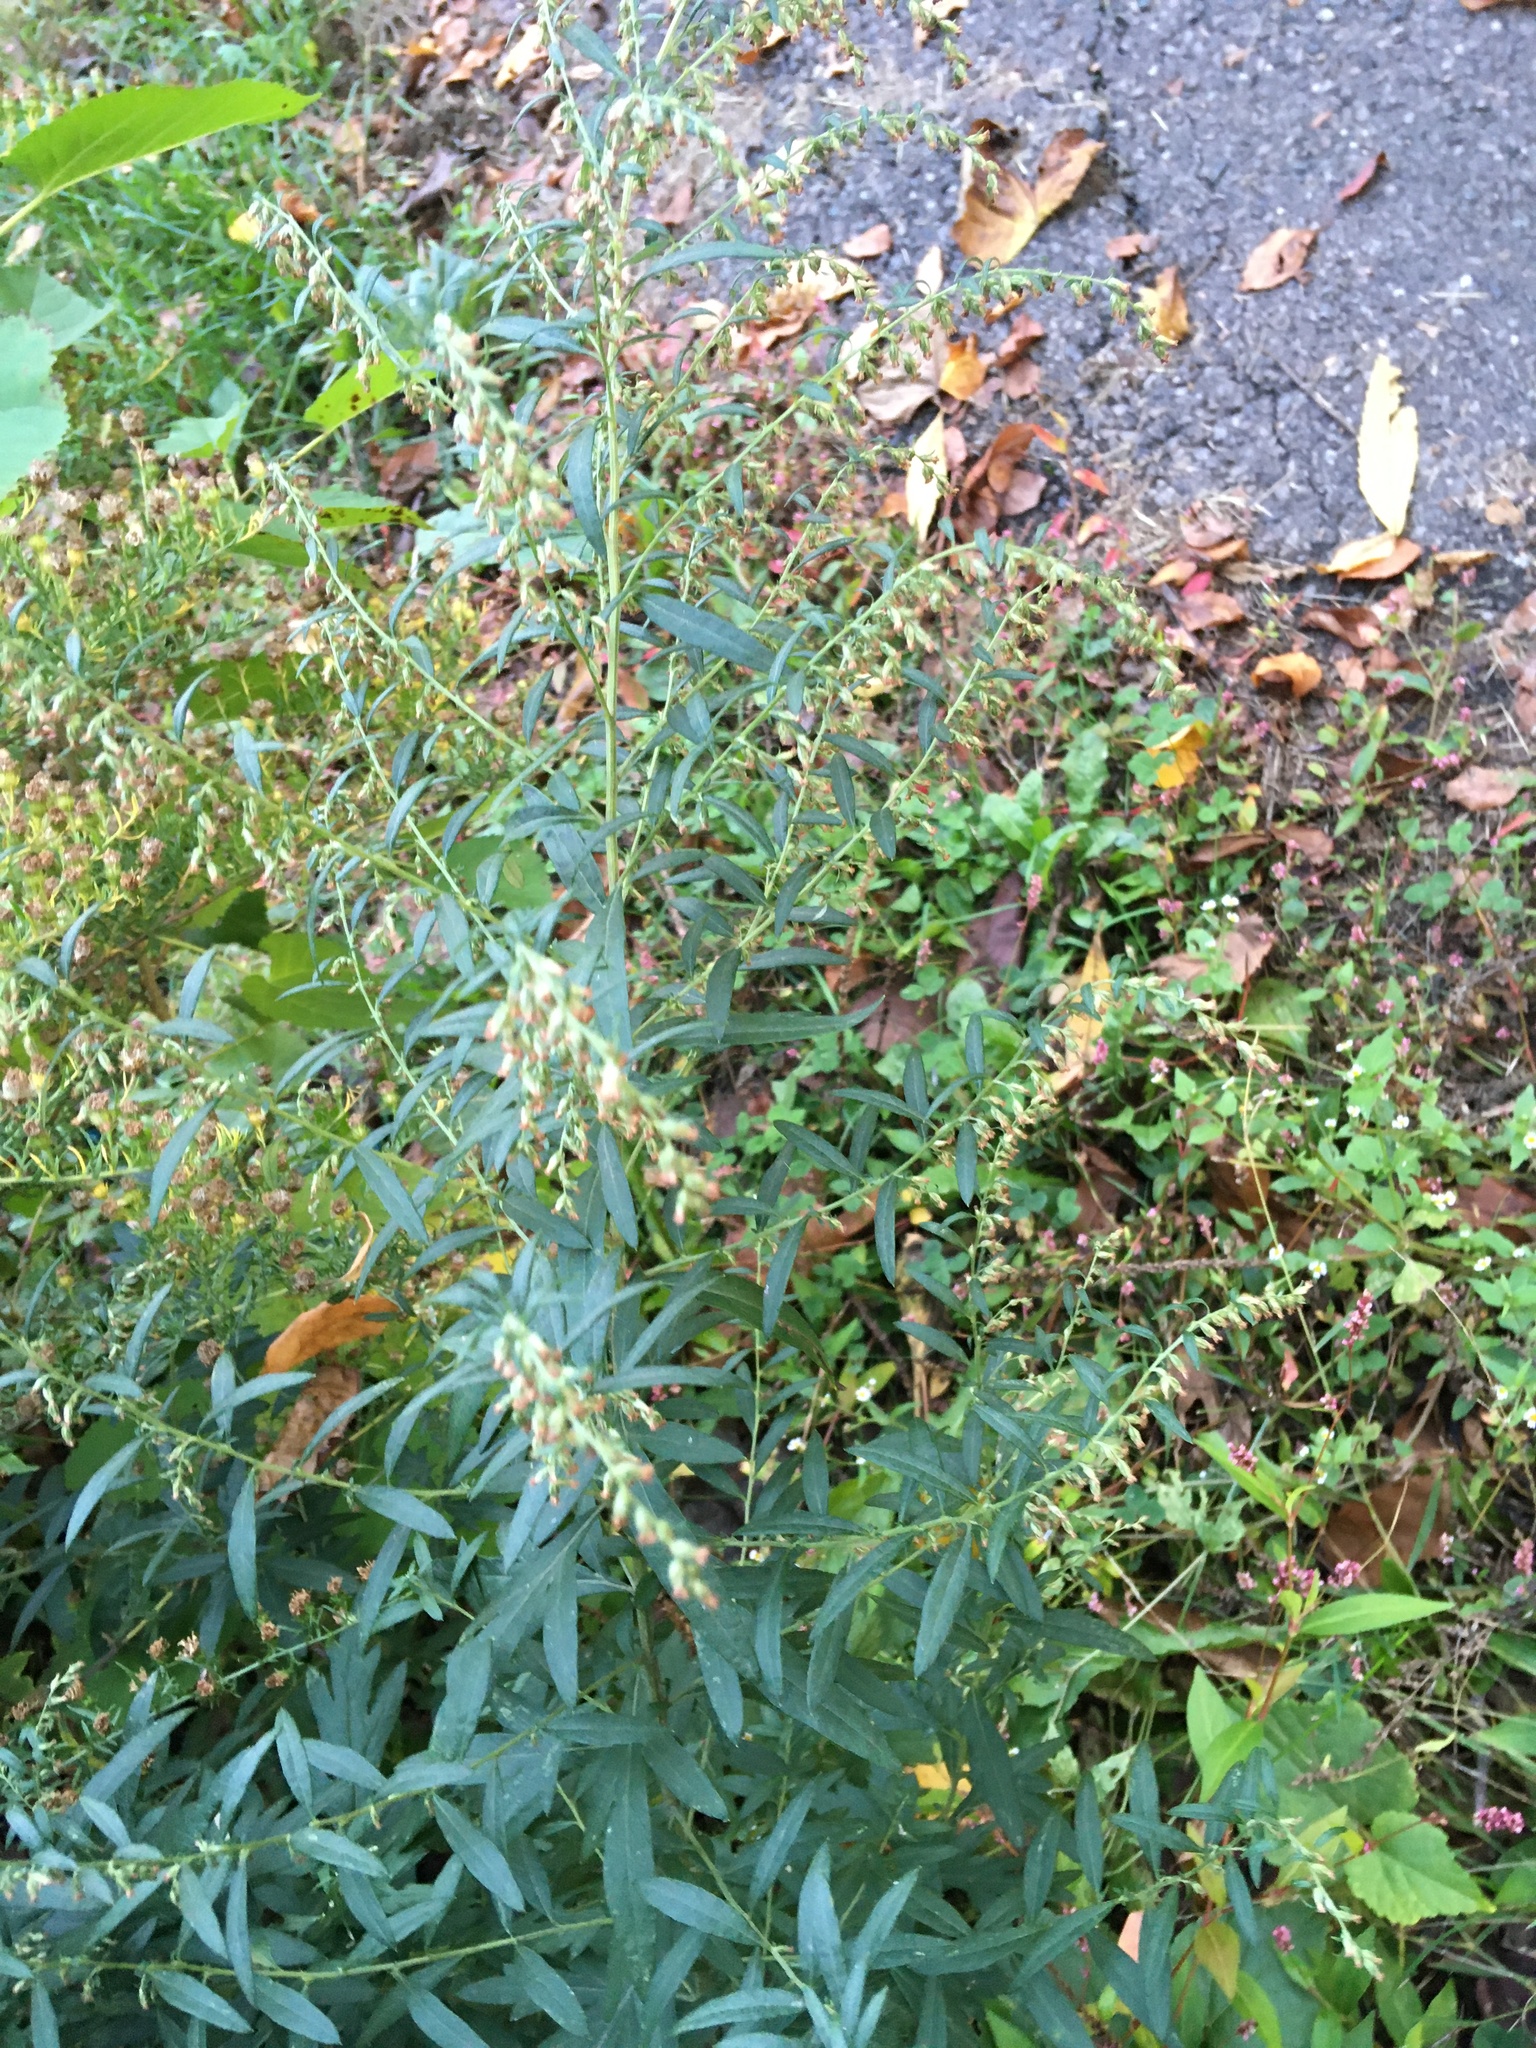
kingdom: Plantae
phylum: Tracheophyta
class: Magnoliopsida
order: Asterales
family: Asteraceae
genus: Artemisia
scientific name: Artemisia vulgaris
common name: Mugwort
